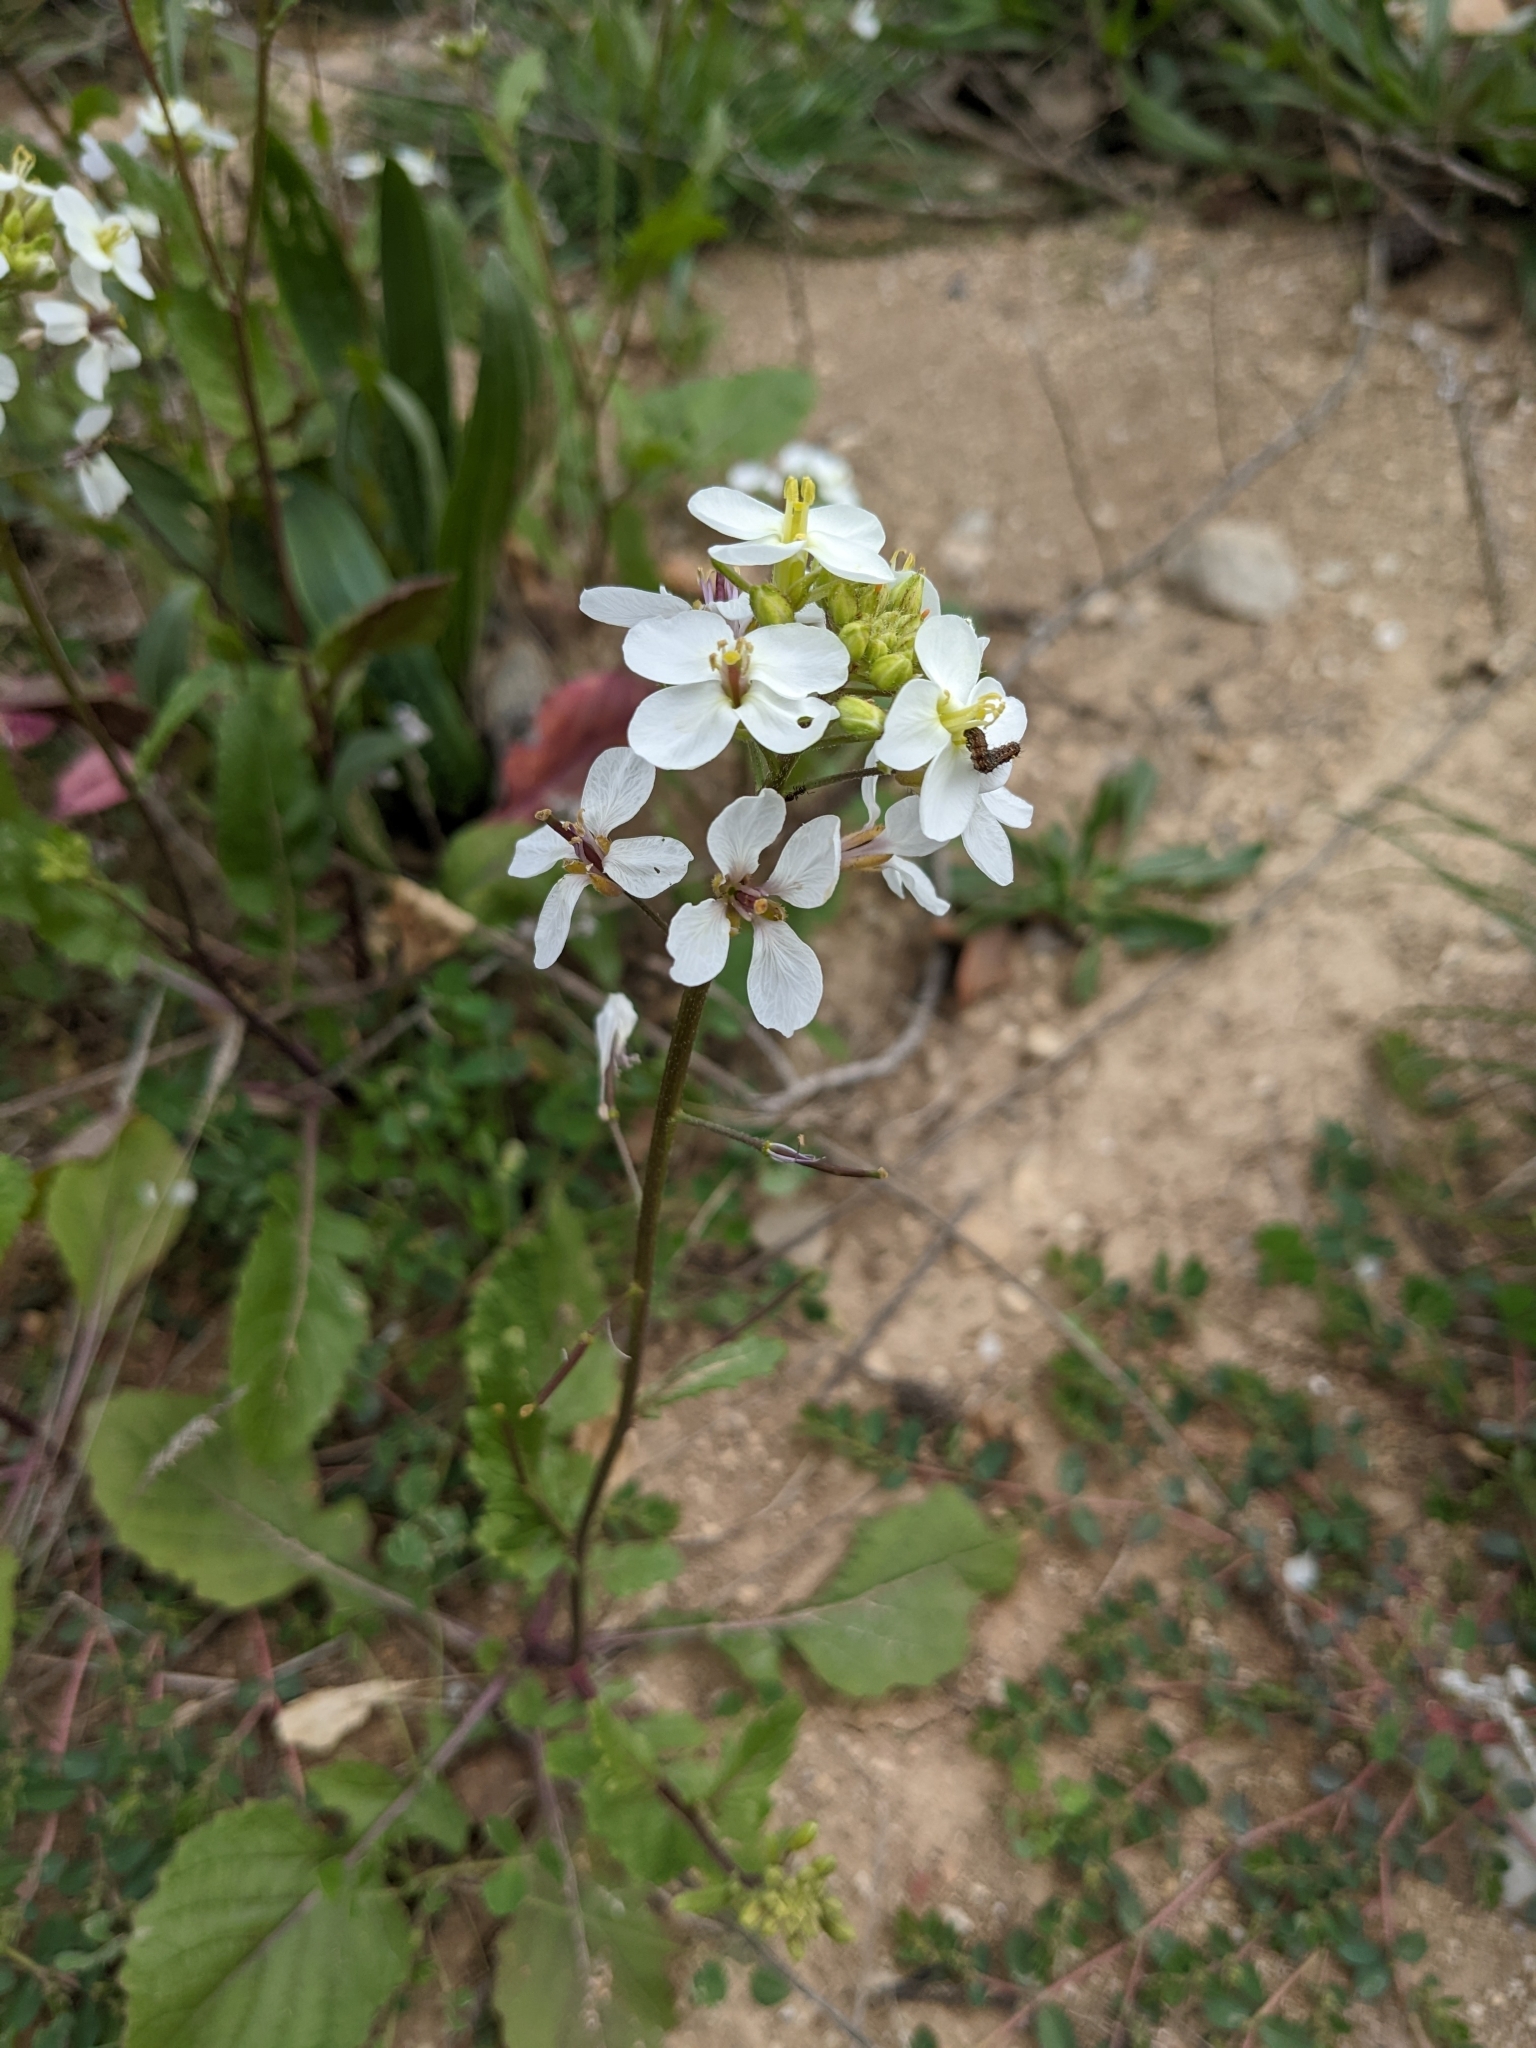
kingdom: Plantae
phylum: Tracheophyta
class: Magnoliopsida
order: Brassicales
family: Brassicaceae
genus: Diplotaxis
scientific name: Diplotaxis erucoides
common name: White rocket
